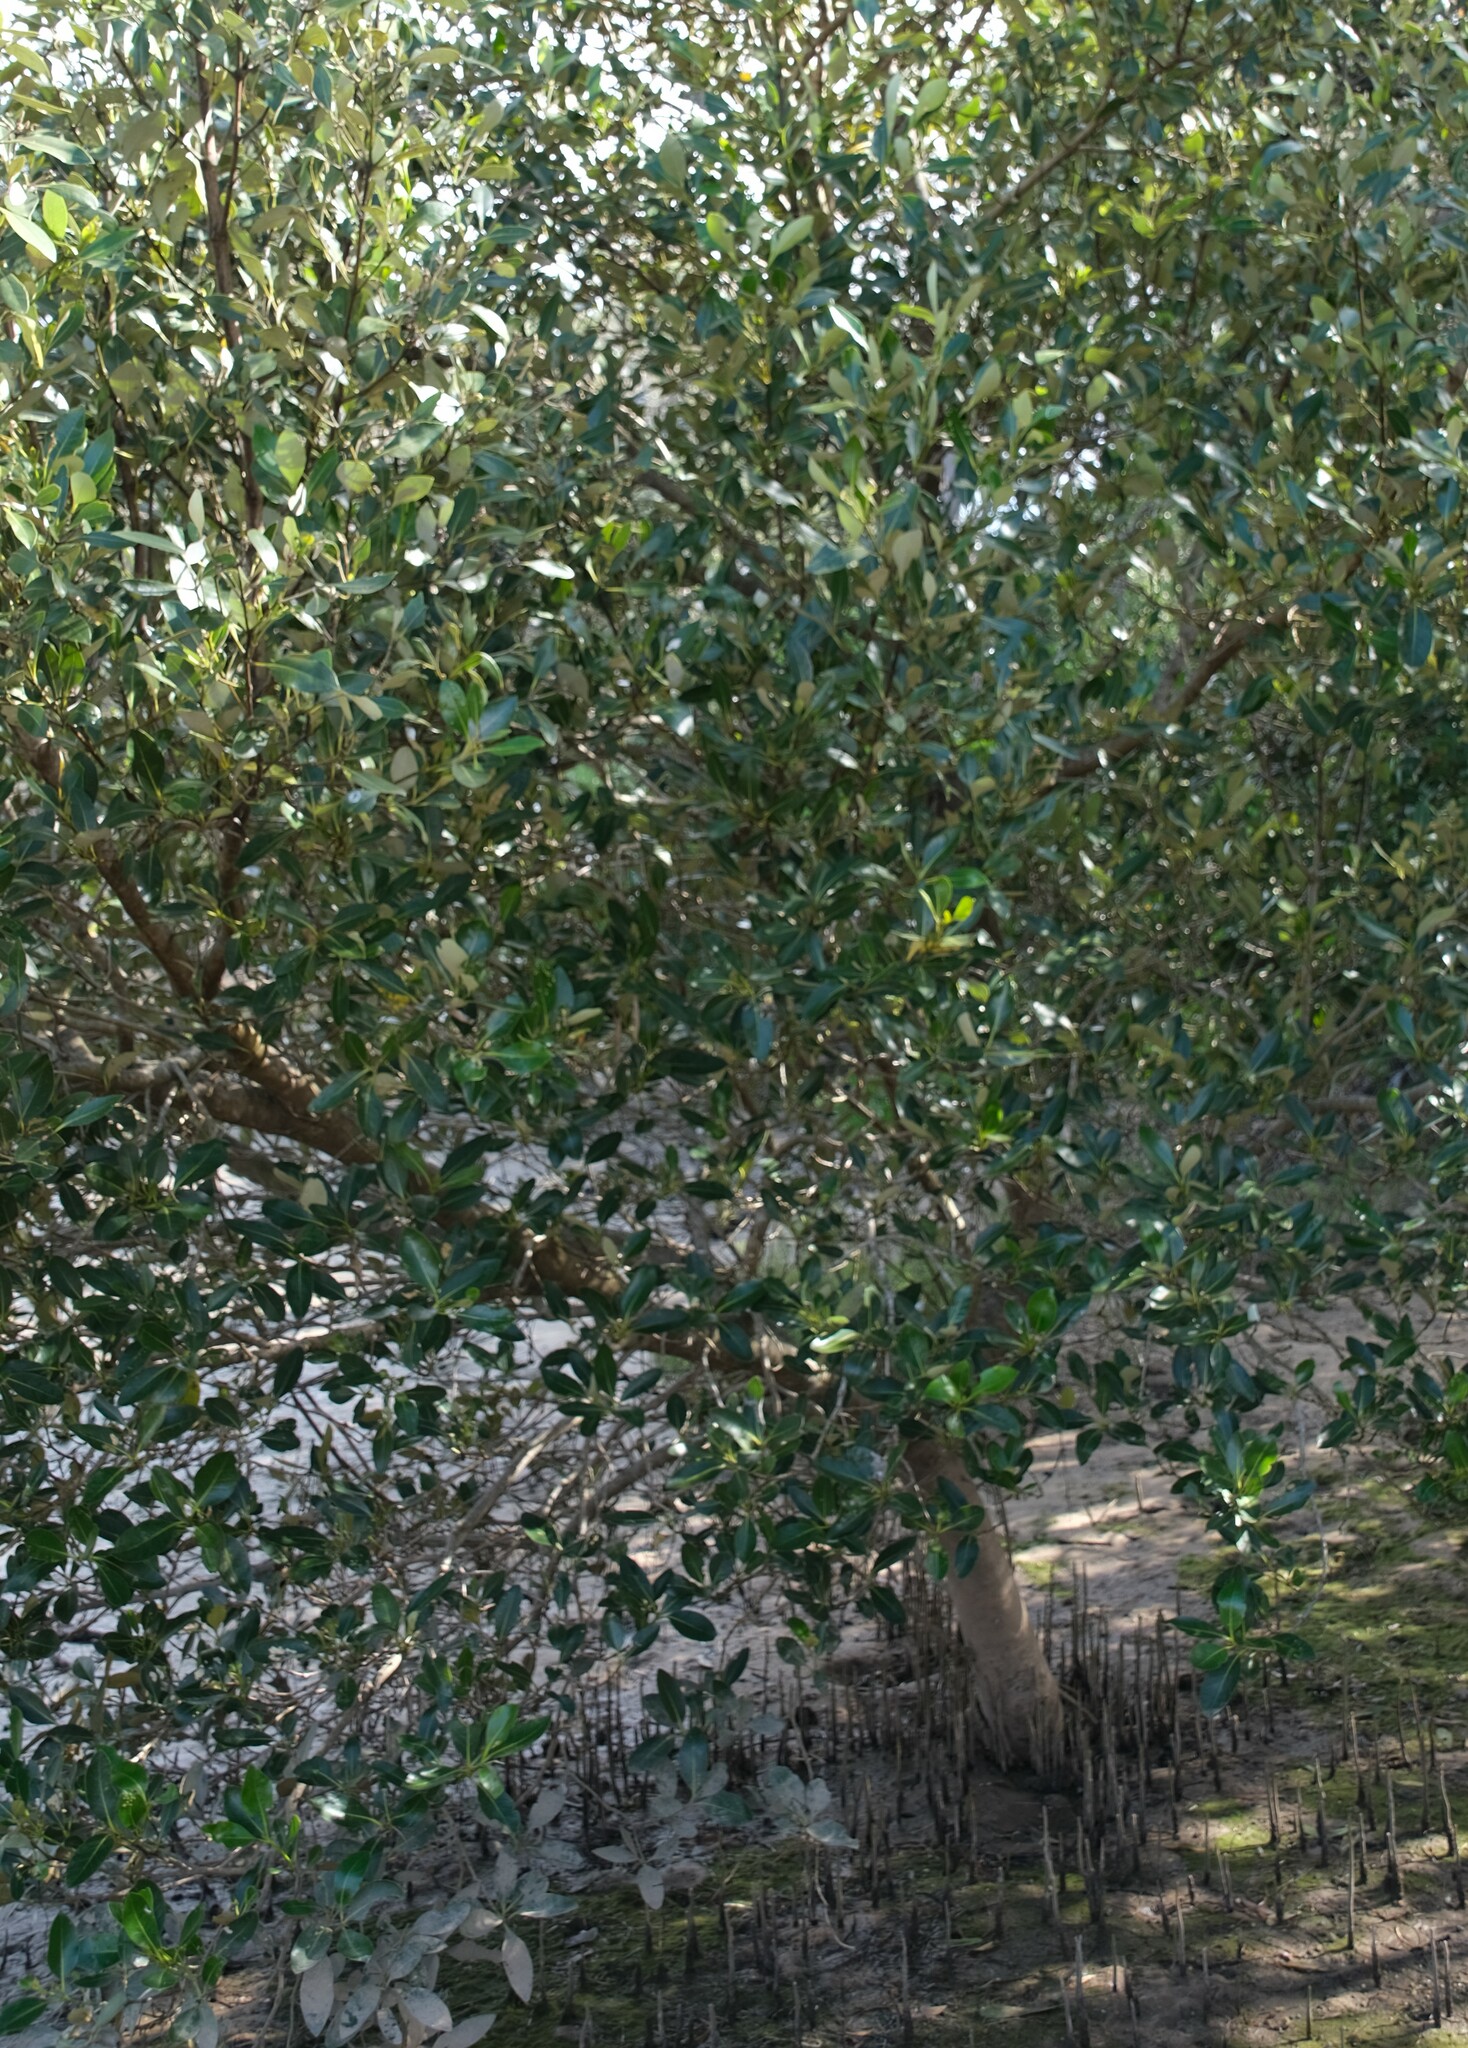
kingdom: Plantae
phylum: Tracheophyta
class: Magnoliopsida
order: Lamiales
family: Acanthaceae
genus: Avicennia
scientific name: Avicennia marina
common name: Gray mangrove
